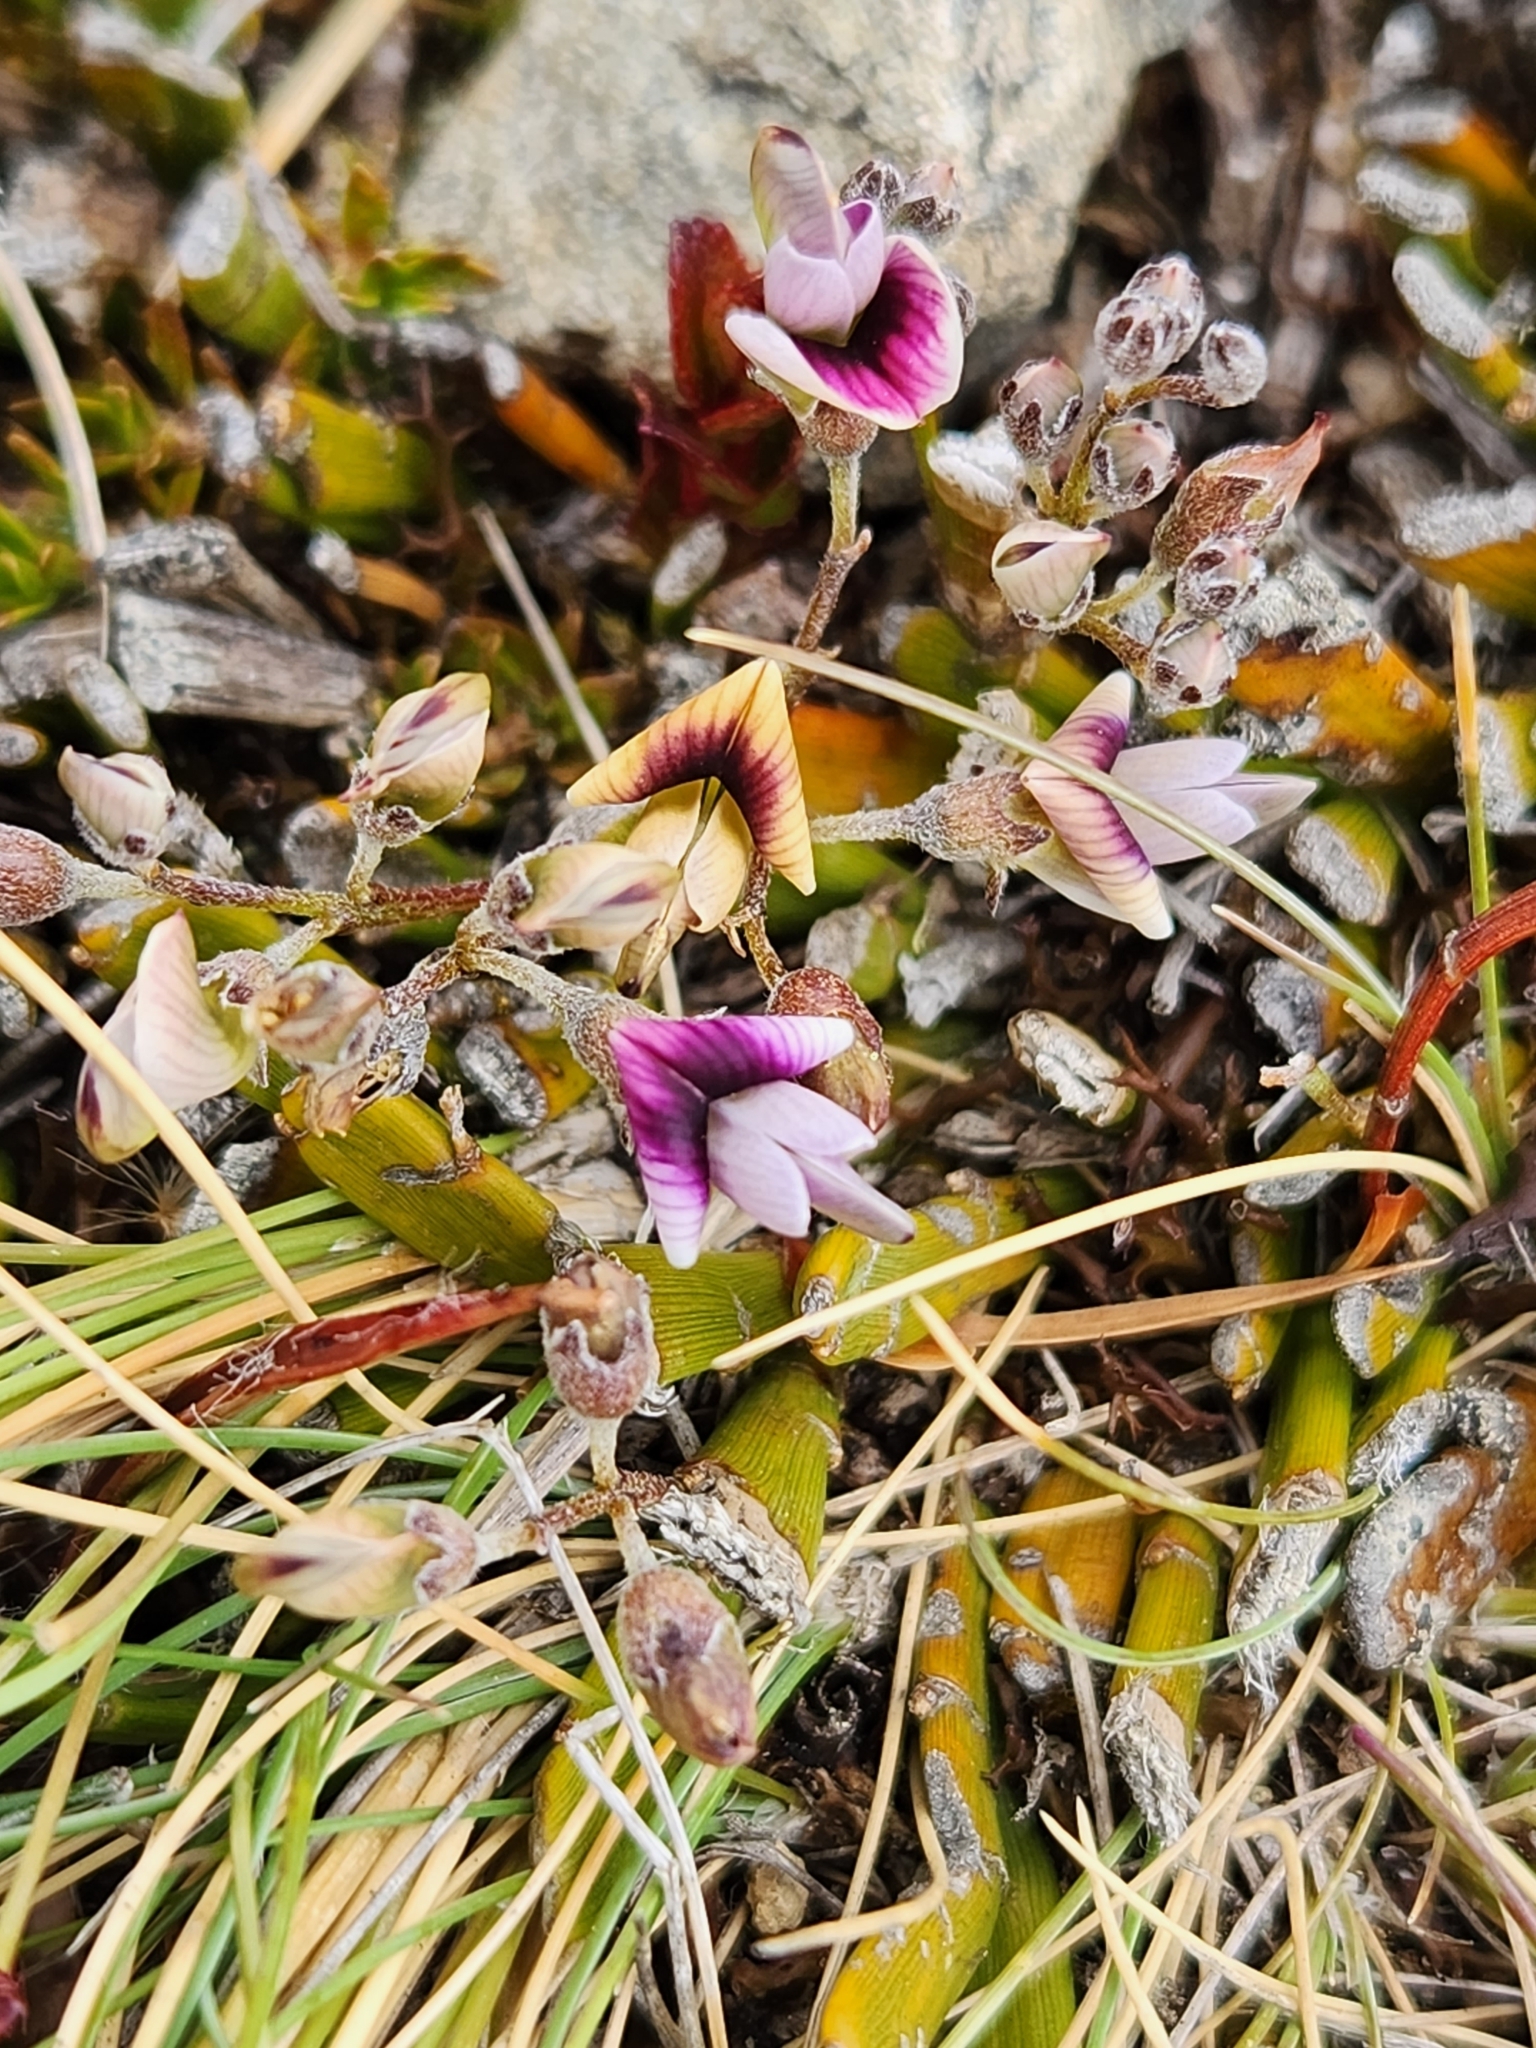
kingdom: Plantae
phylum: Tracheophyta
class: Magnoliopsida
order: Fabales
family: Fabaceae
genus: Carmichaelia
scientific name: Carmichaelia monroi
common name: Stout dwarf broom
